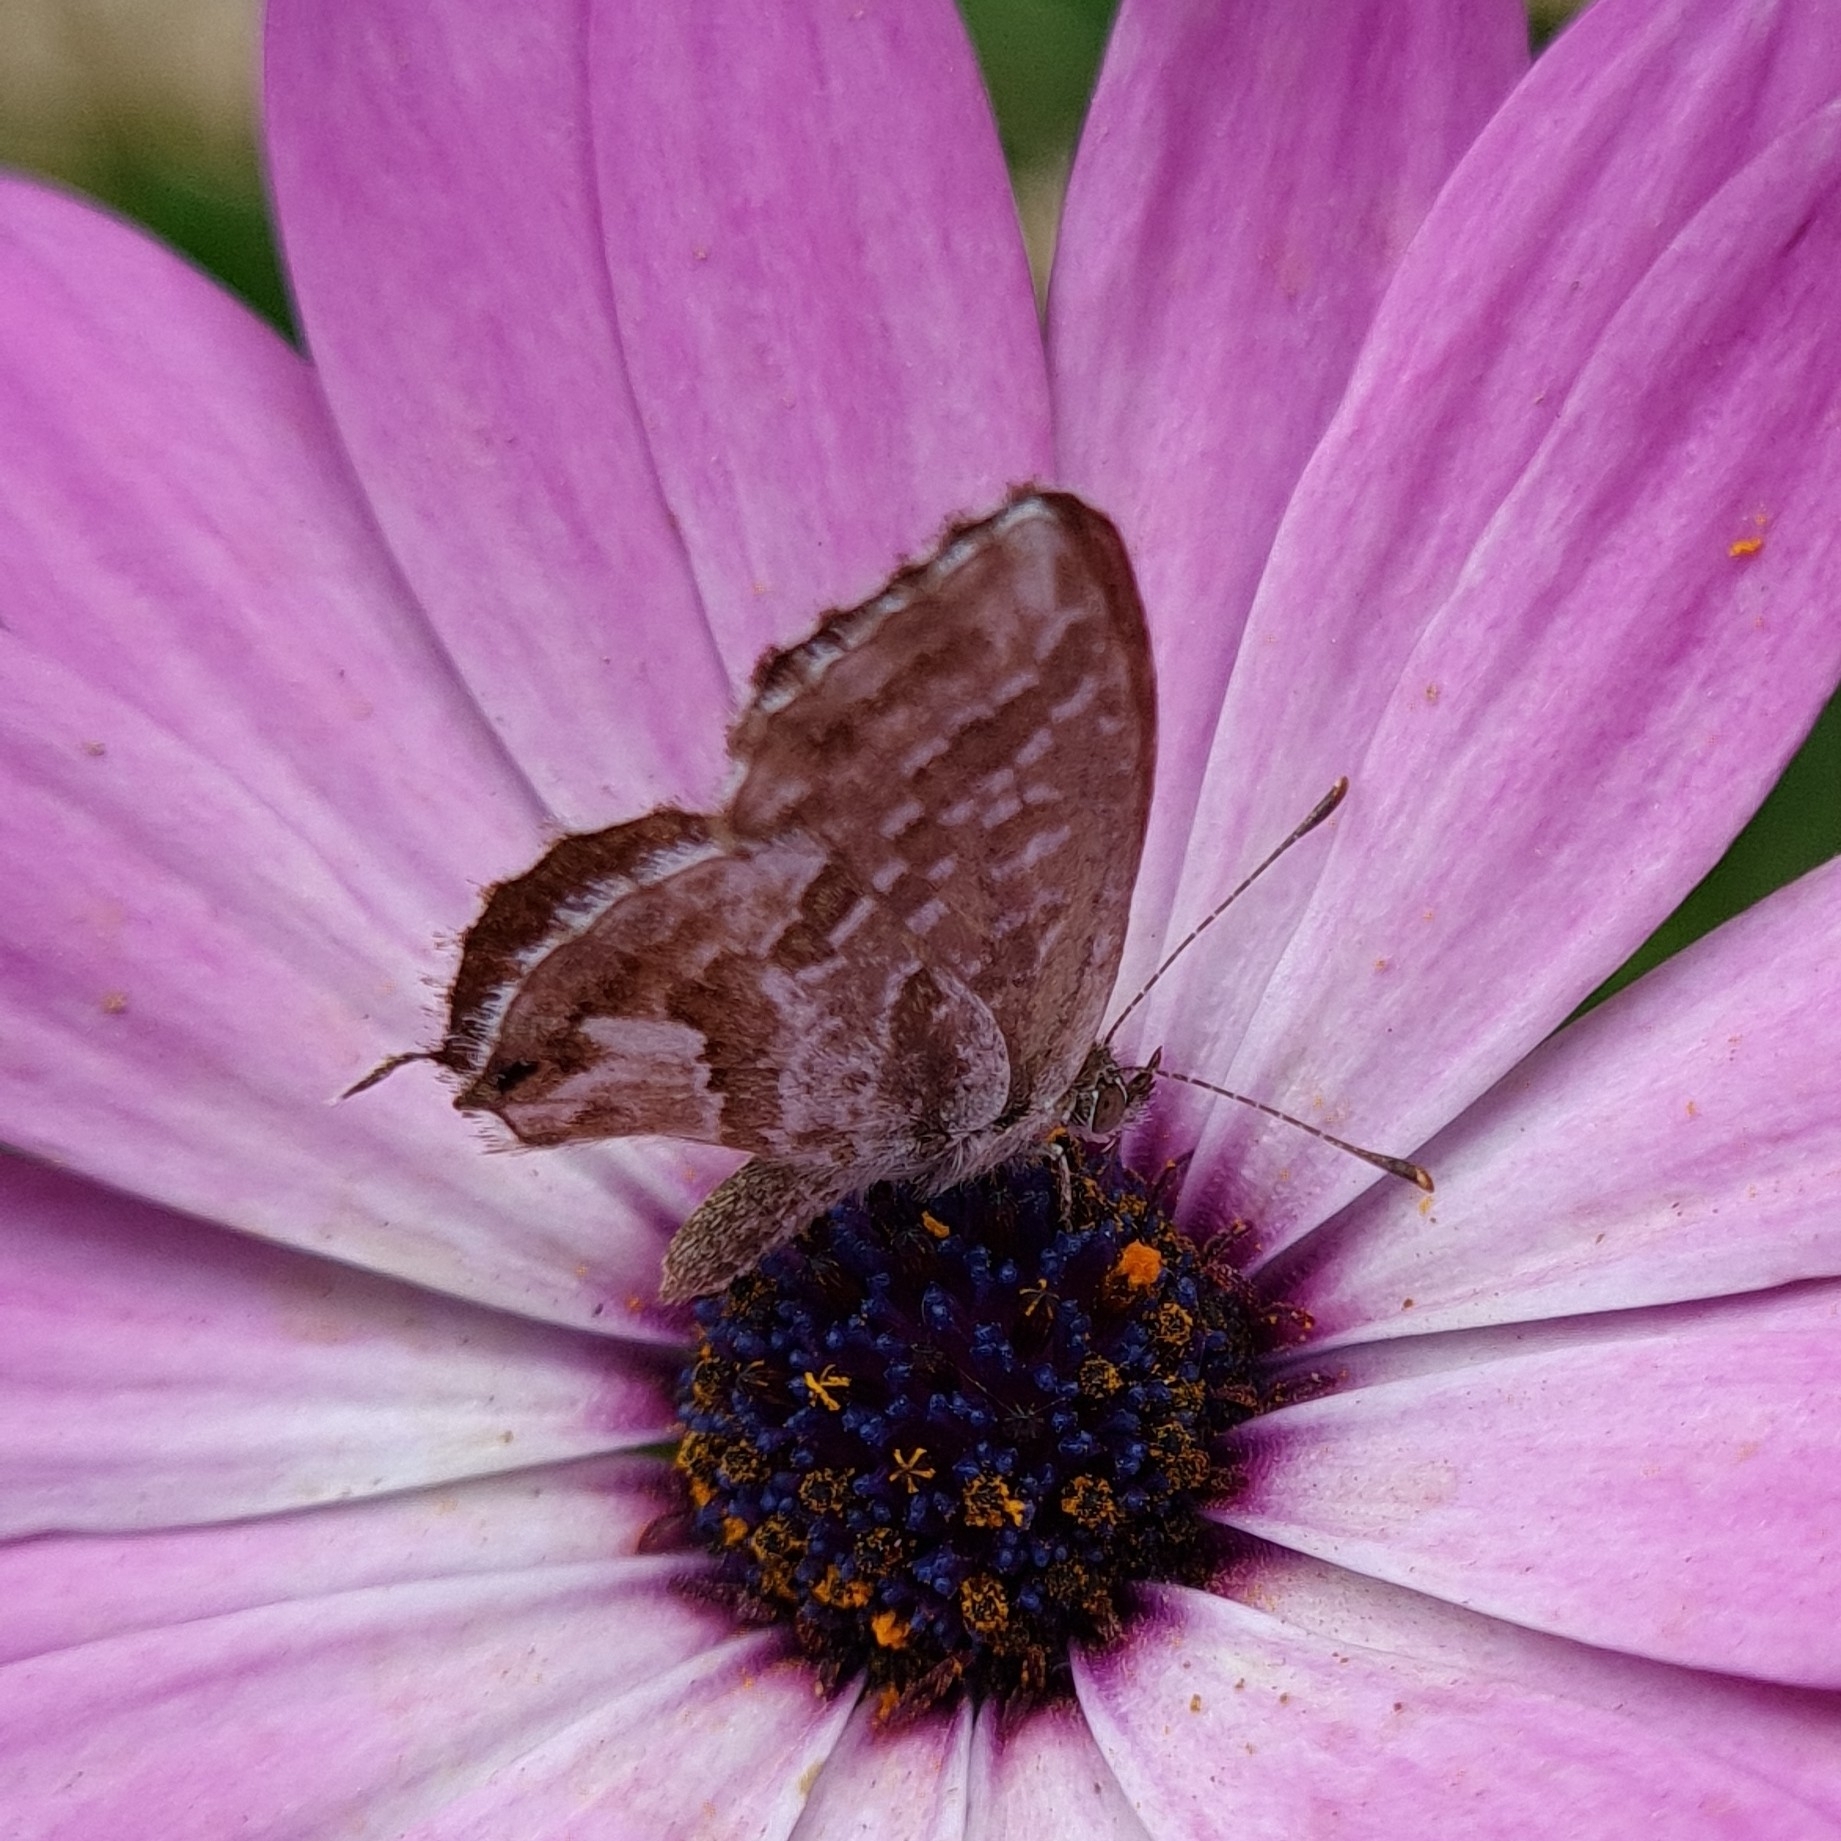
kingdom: Animalia
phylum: Arthropoda
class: Insecta
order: Lepidoptera
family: Lycaenidae
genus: Cacyreus
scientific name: Cacyreus marshalli
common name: Geranium bronze
